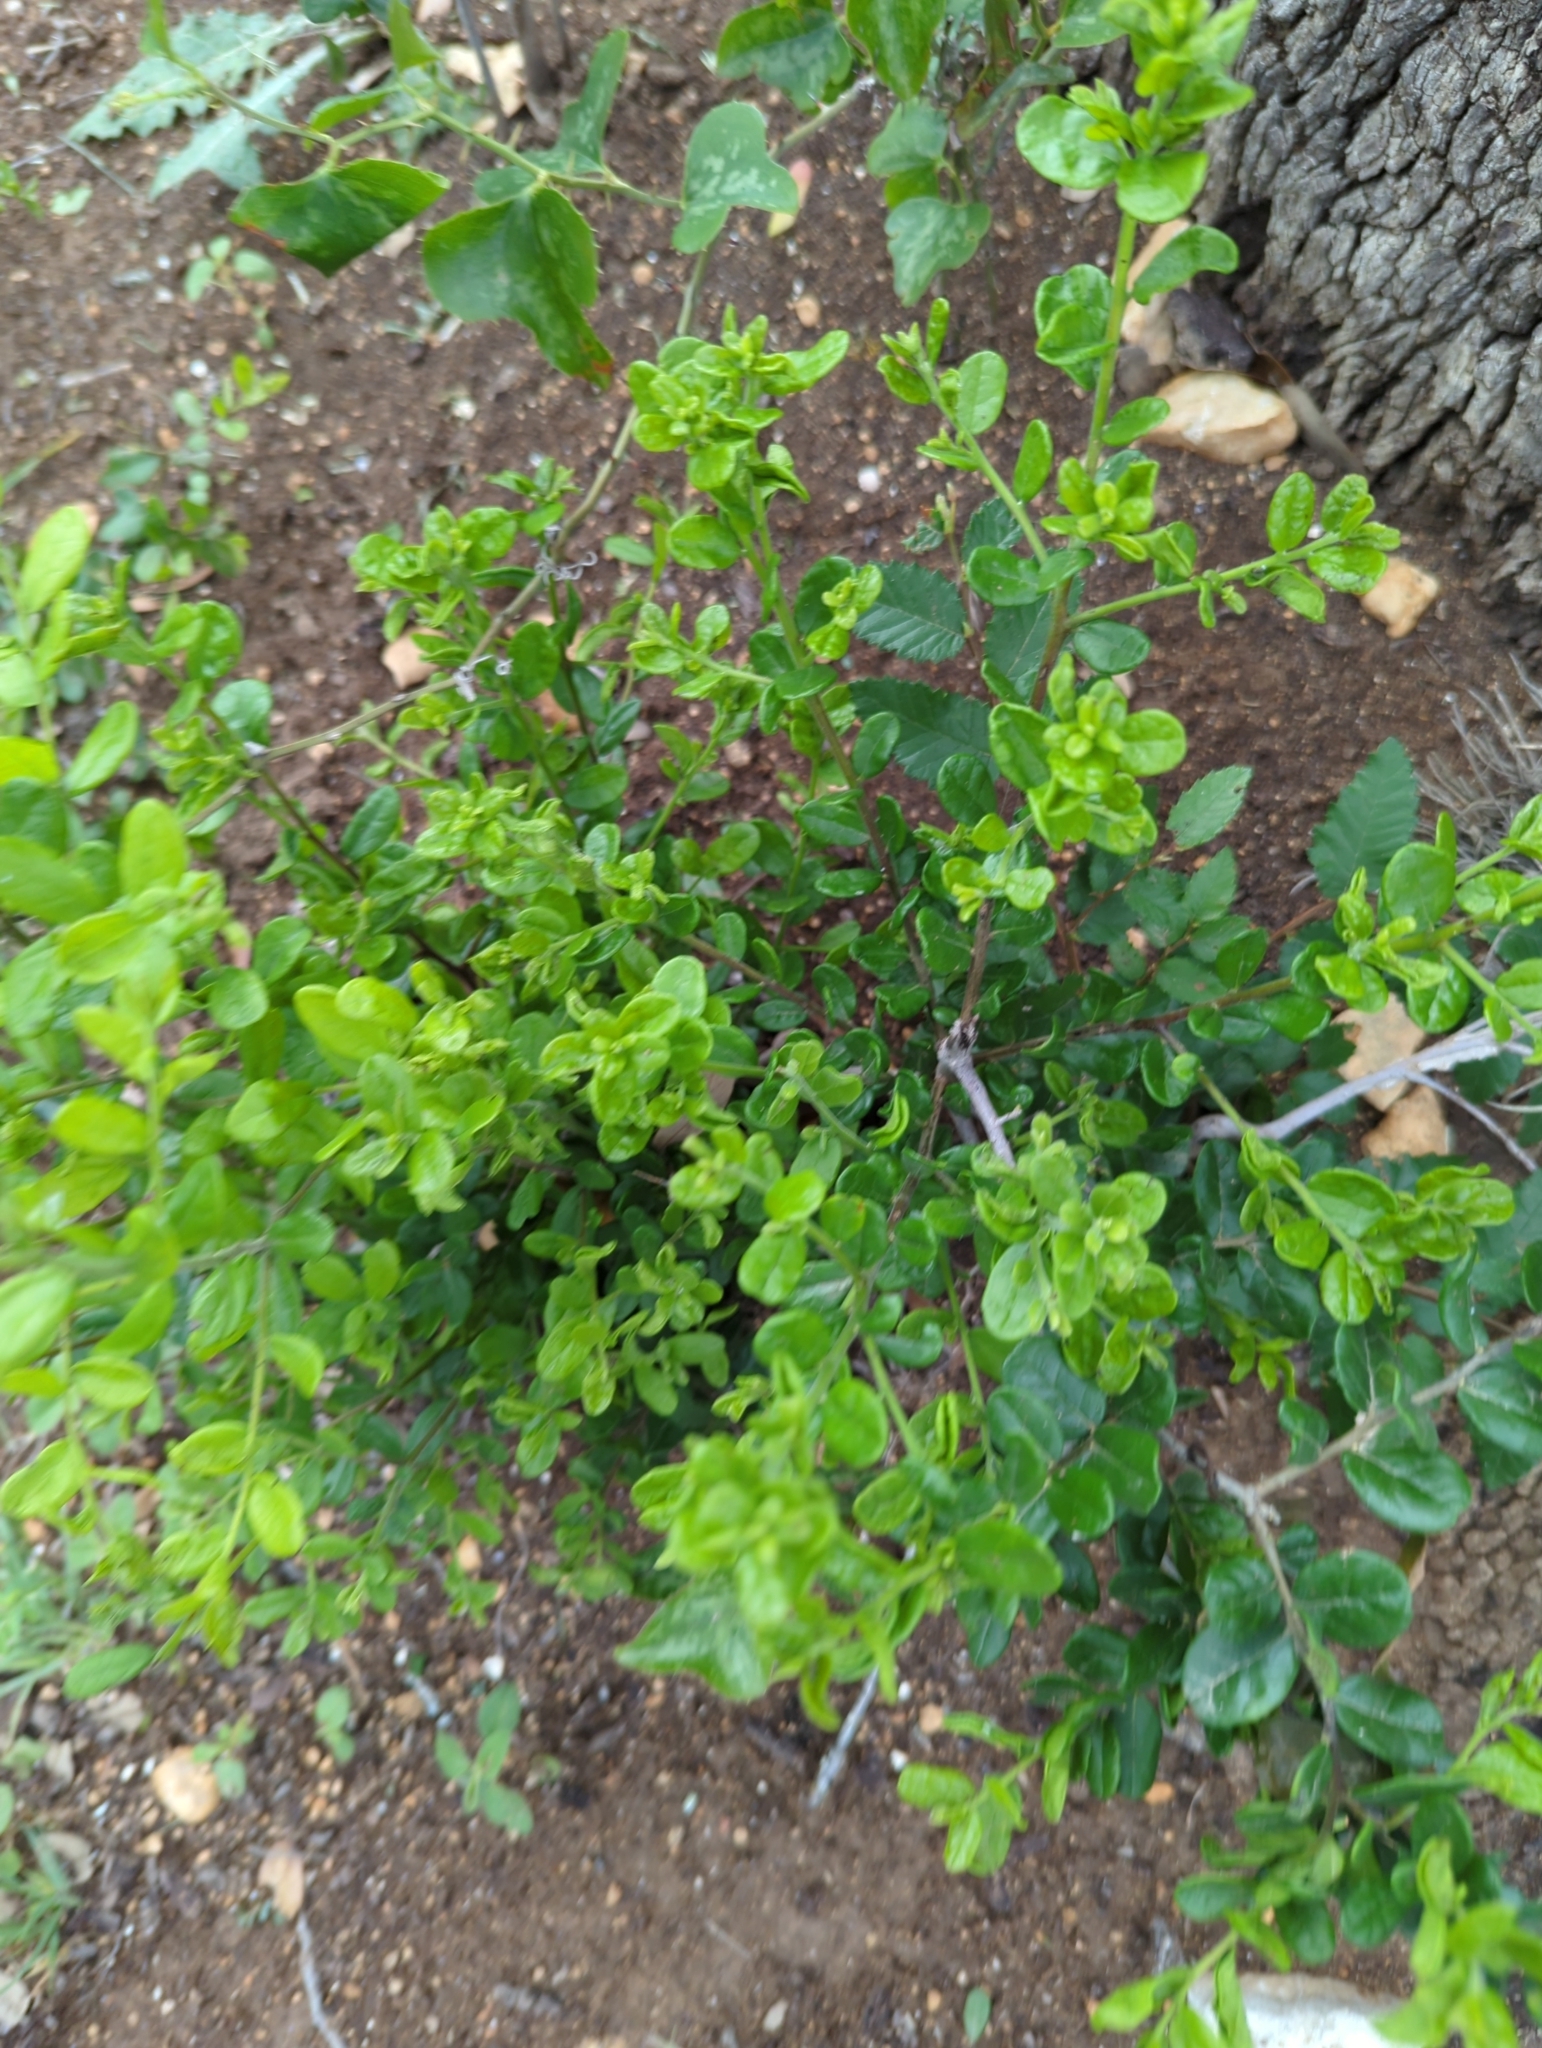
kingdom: Plantae
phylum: Tracheophyta
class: Magnoliopsida
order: Ericales
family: Ebenaceae
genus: Diospyros
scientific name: Diospyros texana
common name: Texas persimmon
